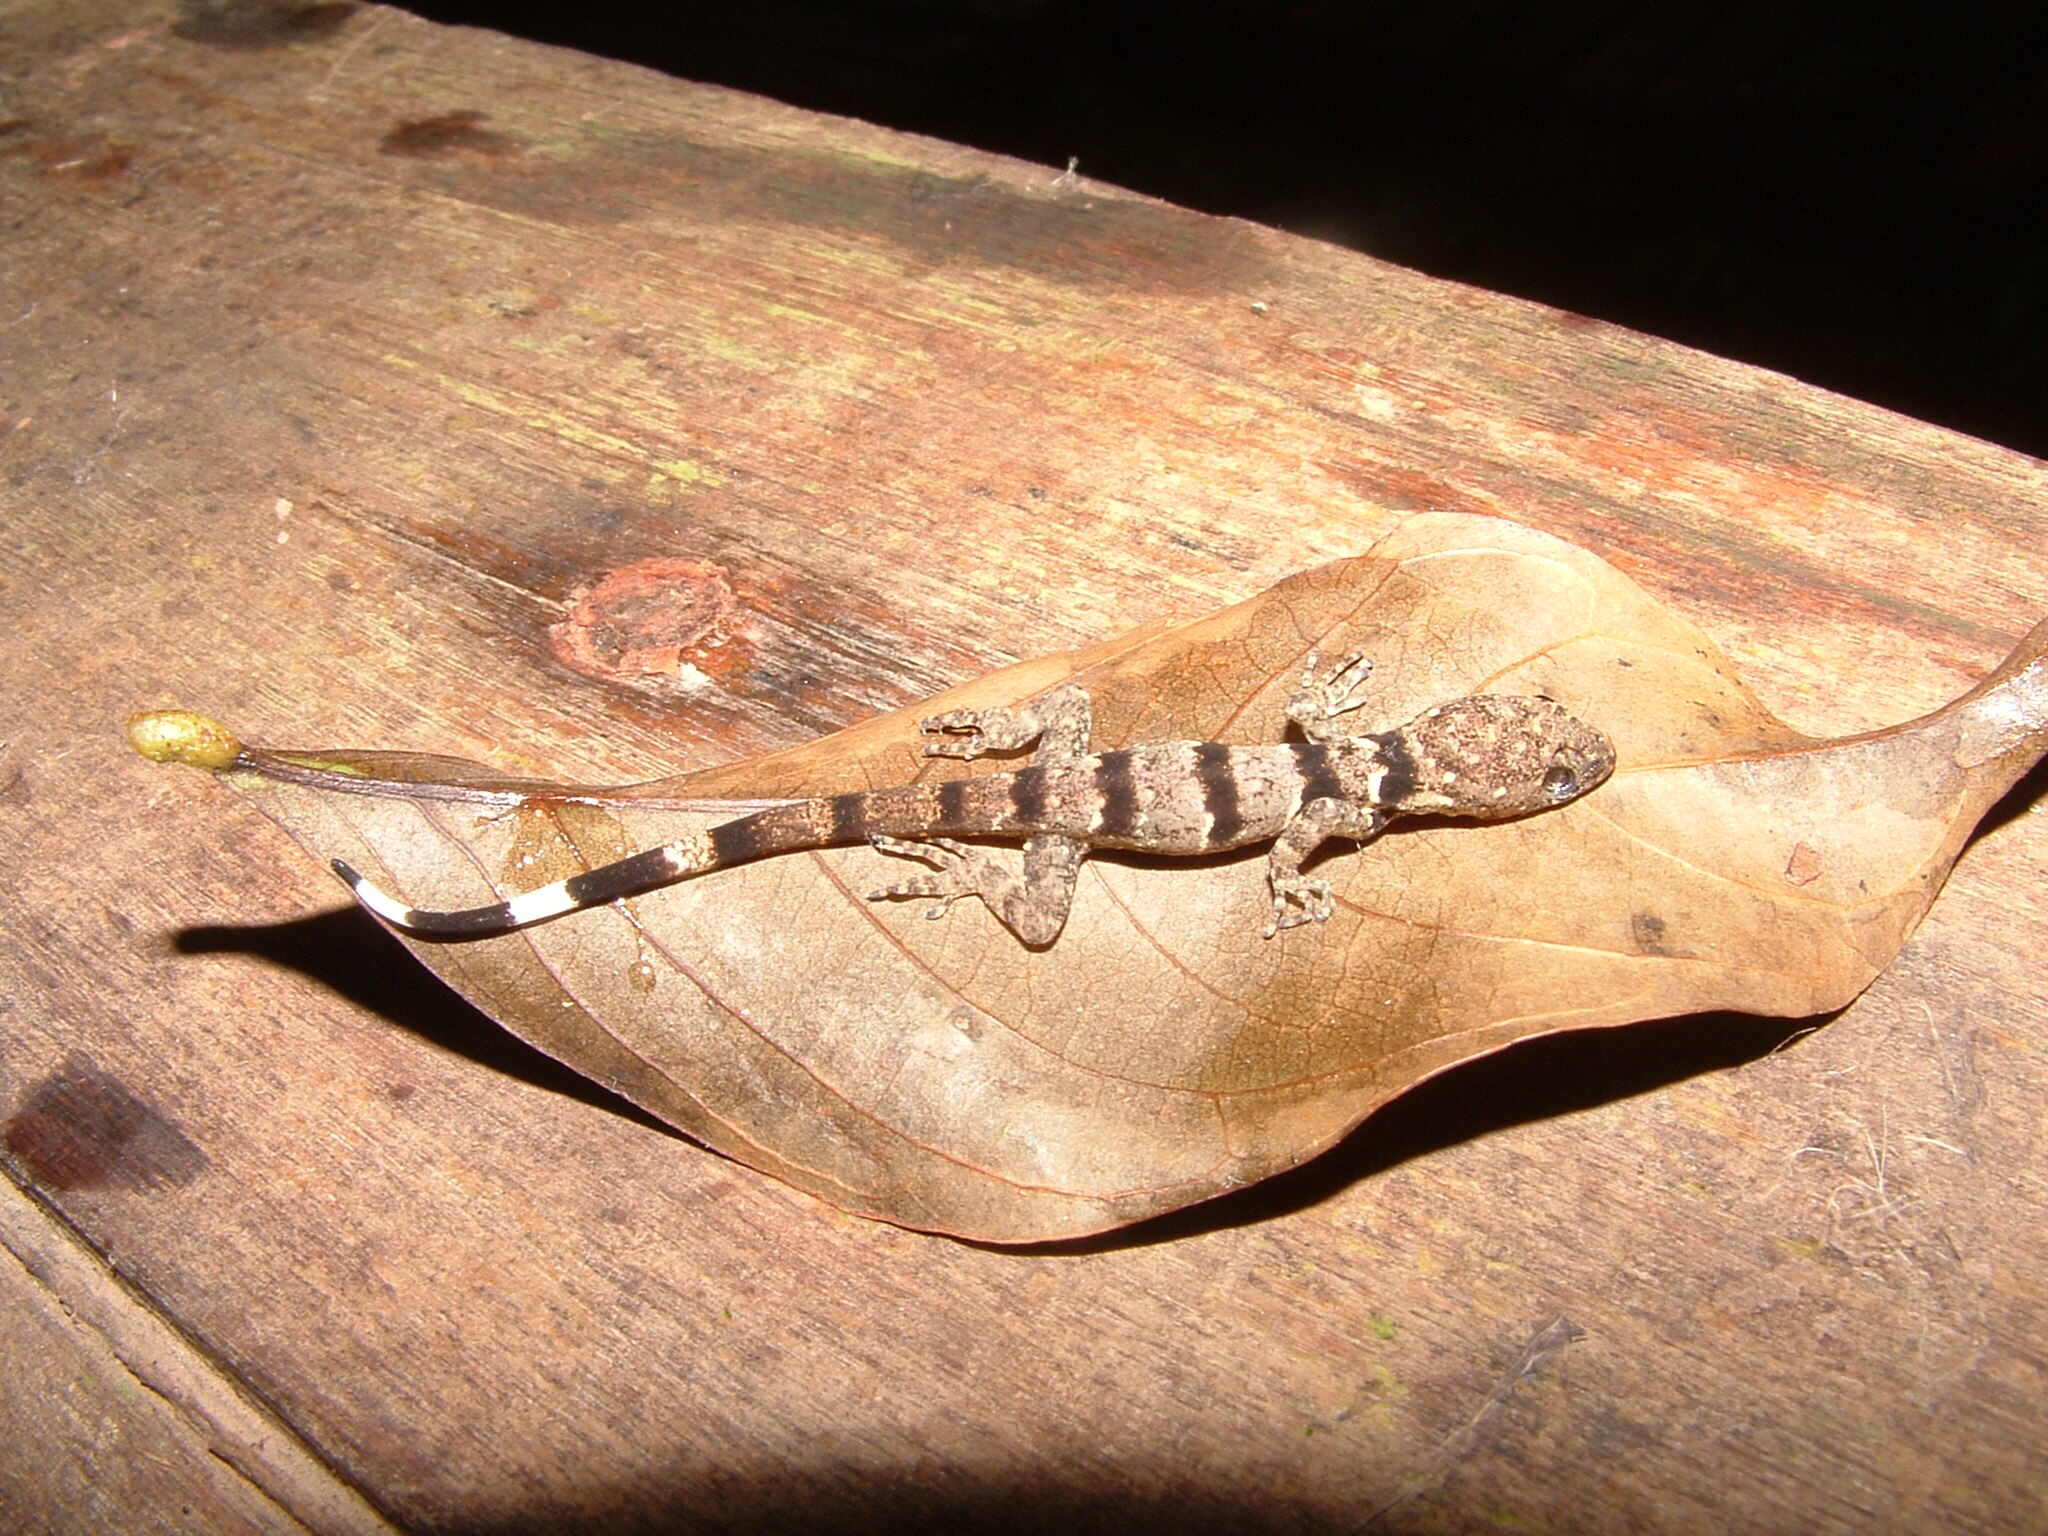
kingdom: Animalia
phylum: Chordata
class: Squamata
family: Sphaerodactylidae
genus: Gonatodes
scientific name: Gonatodes concinnatus
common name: O'shaughnessy's gecko
